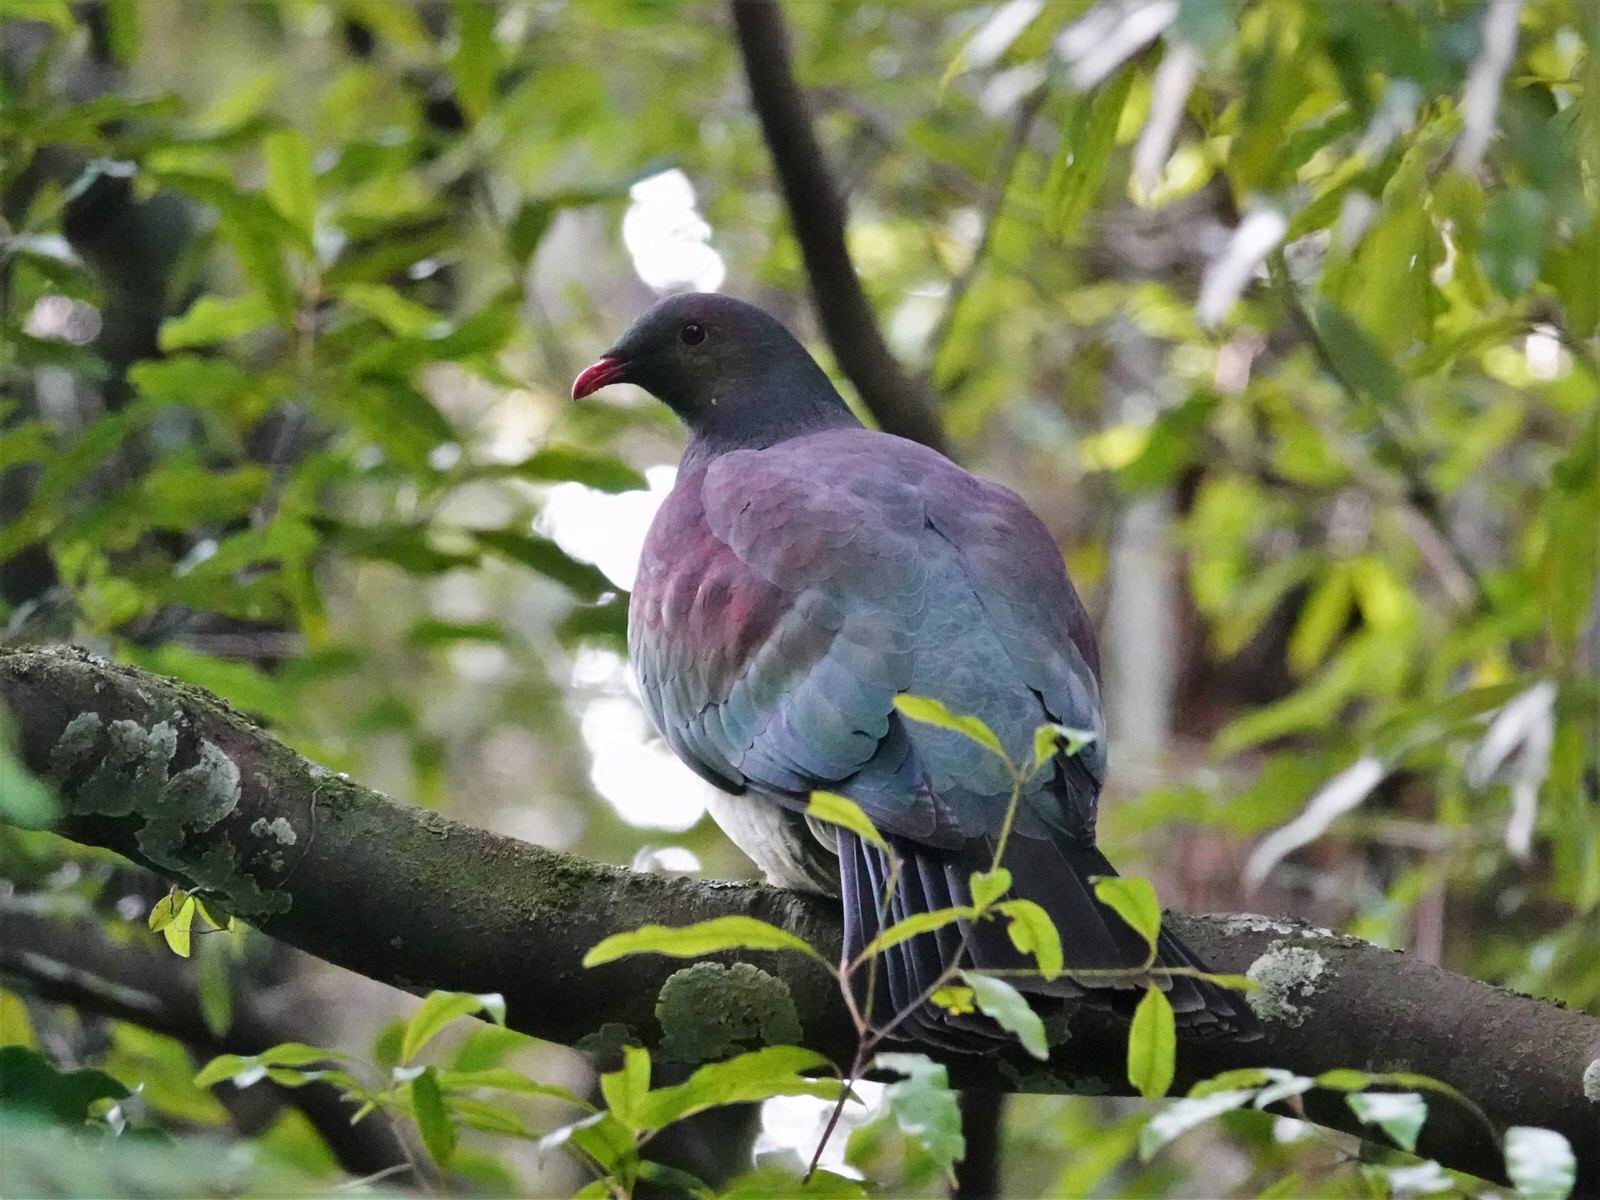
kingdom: Animalia
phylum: Chordata
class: Aves
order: Columbiformes
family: Columbidae
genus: Hemiphaga
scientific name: Hemiphaga novaeseelandiae
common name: New zealand pigeon
